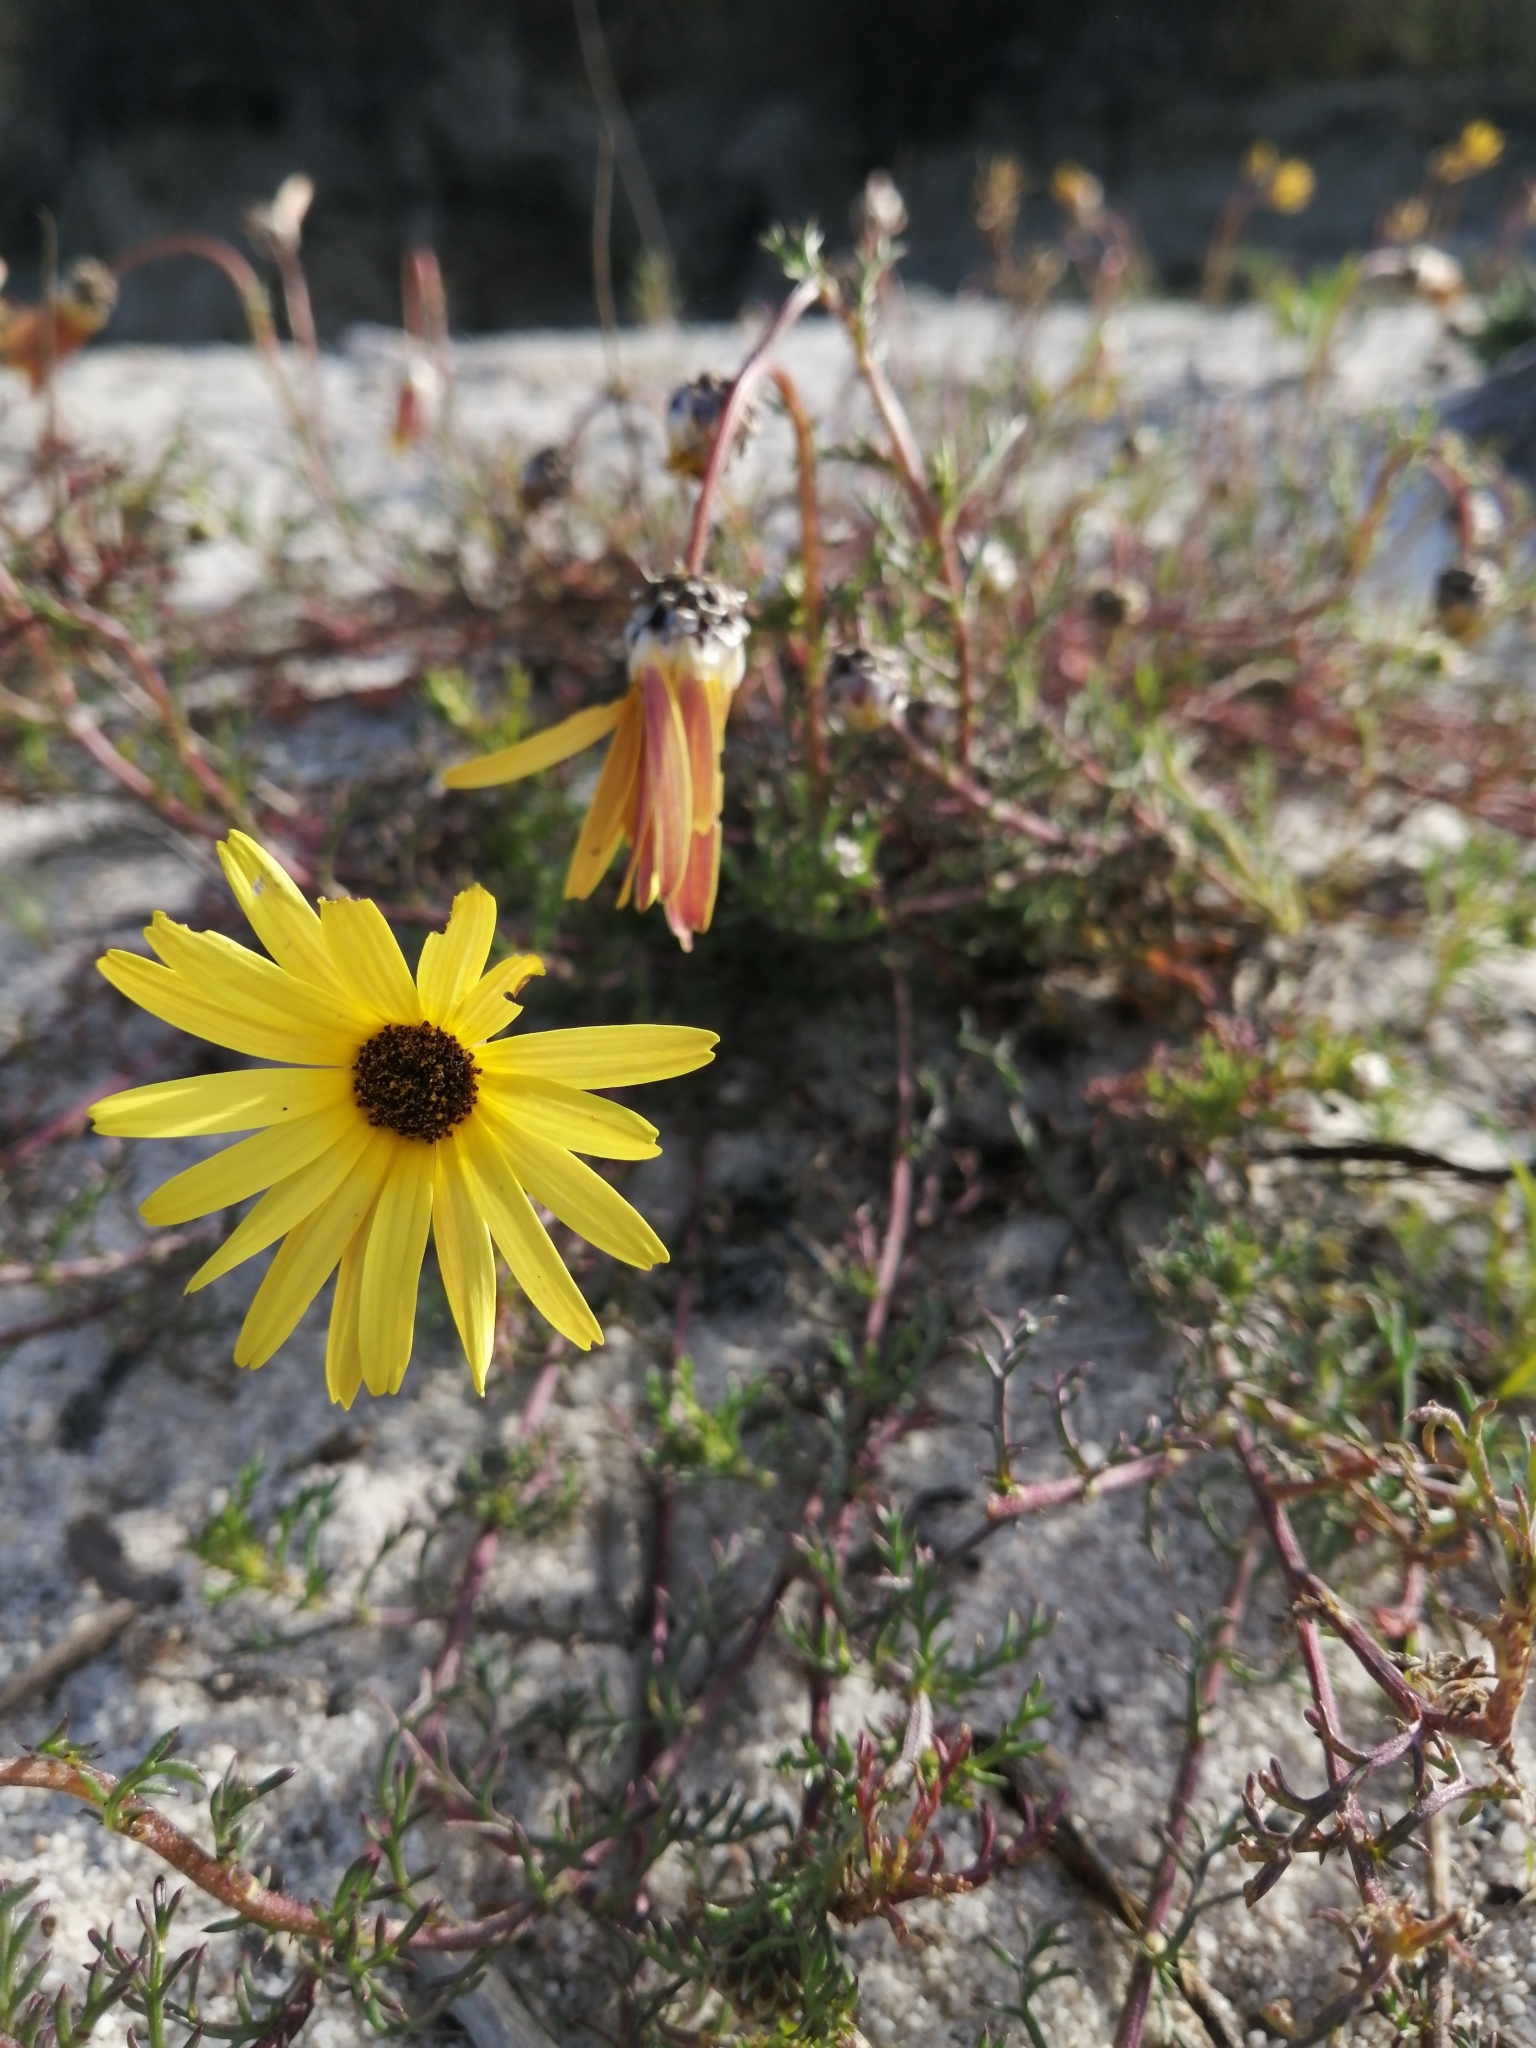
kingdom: Plantae
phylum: Tracheophyta
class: Magnoliopsida
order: Asterales
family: Asteraceae
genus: Ursinia
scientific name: Ursinia chrysanthemoides
